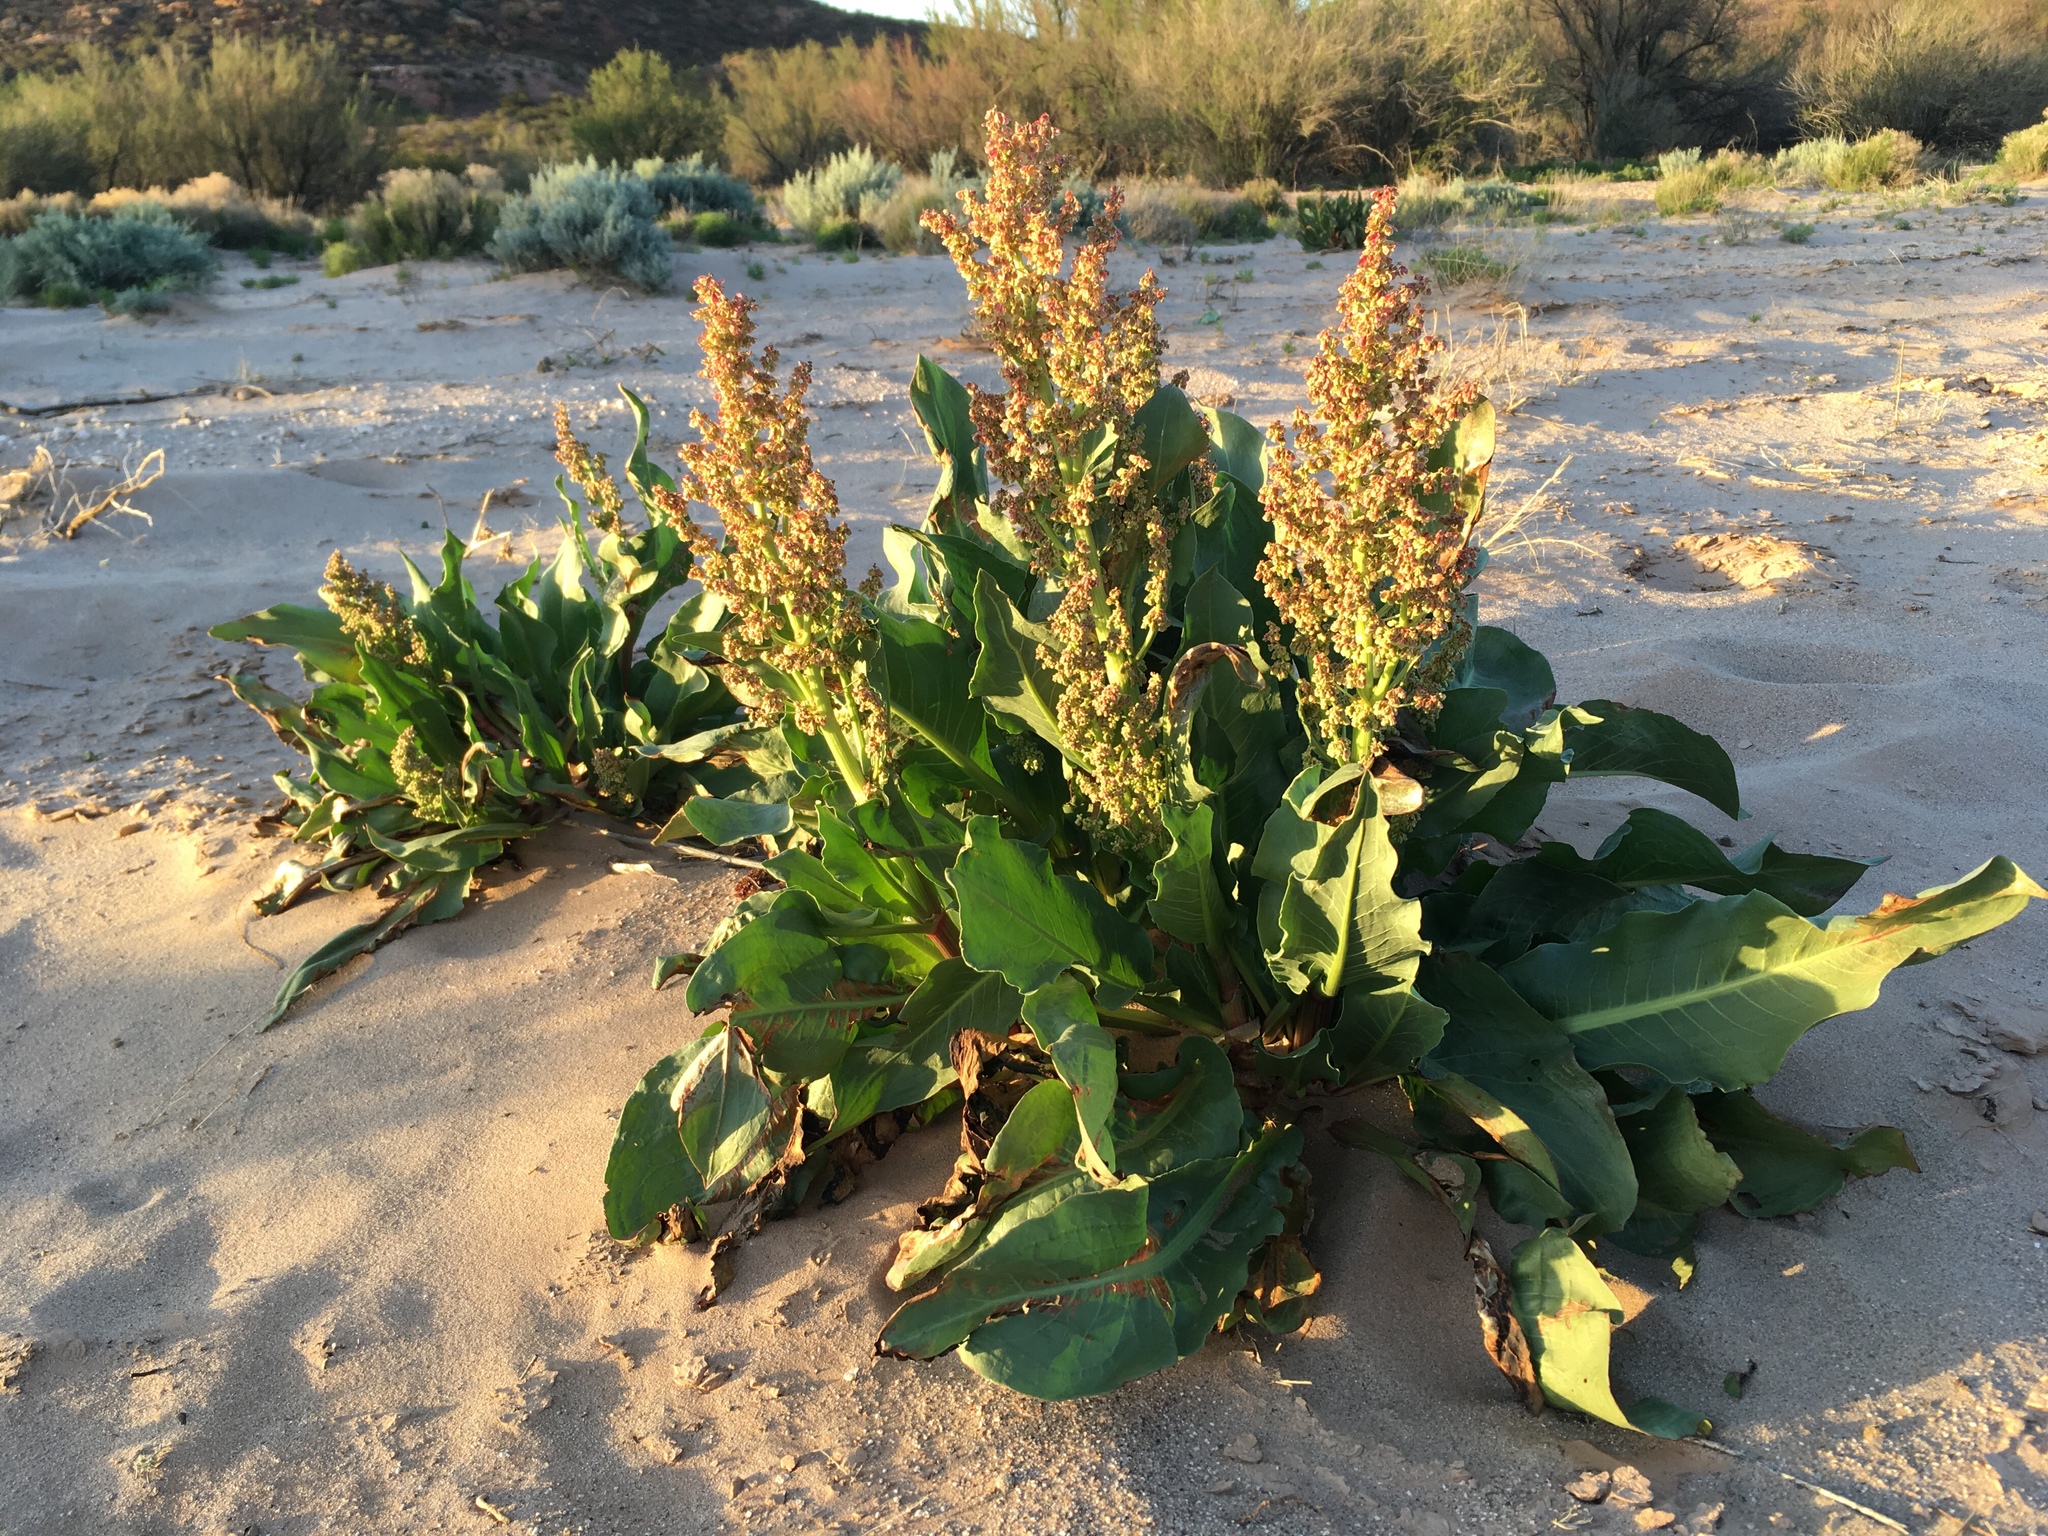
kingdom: Plantae
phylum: Tracheophyta
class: Magnoliopsida
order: Caryophyllales
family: Polygonaceae
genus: Rumex
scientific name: Rumex hymenosepalus
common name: Ganagra
